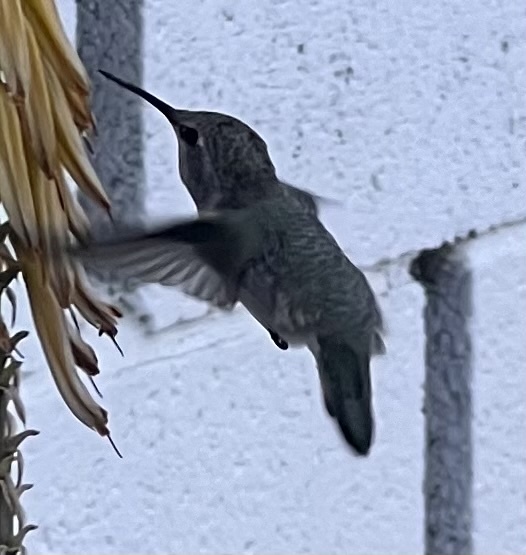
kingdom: Animalia
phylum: Chordata
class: Aves
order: Apodiformes
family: Trochilidae
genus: Calypte
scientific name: Calypte costae
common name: Costa's hummingbird
